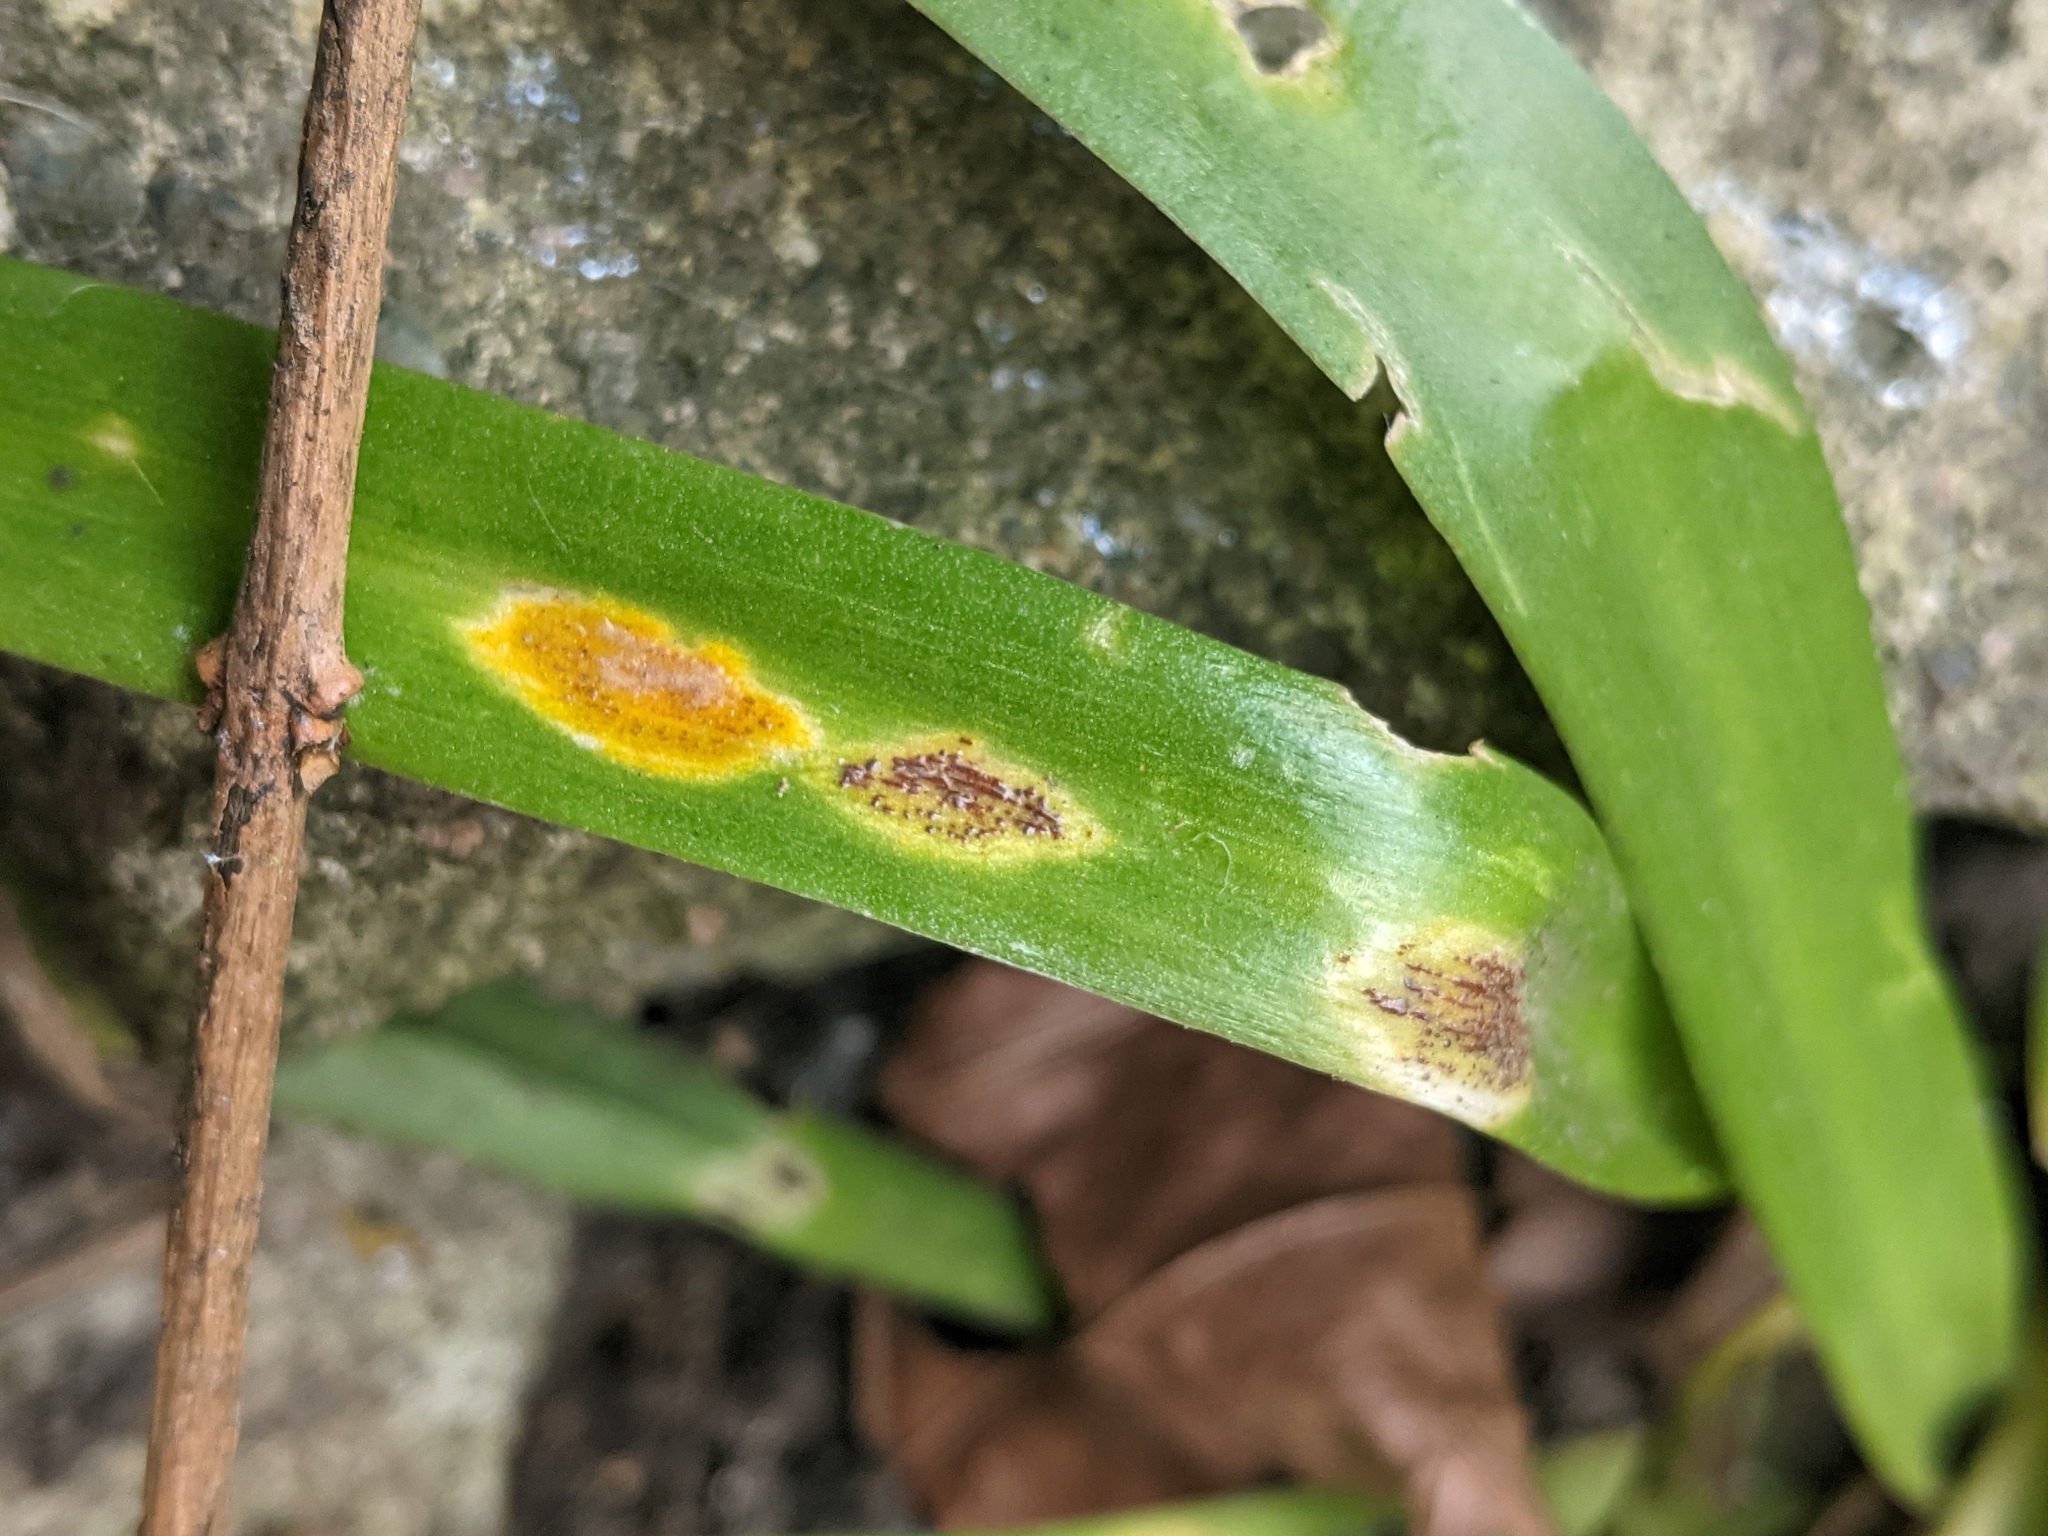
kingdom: Fungi
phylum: Basidiomycota
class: Pucciniomycetes
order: Pucciniales
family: Pucciniaceae
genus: Uromyces
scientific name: Uromyces hyacinthi
